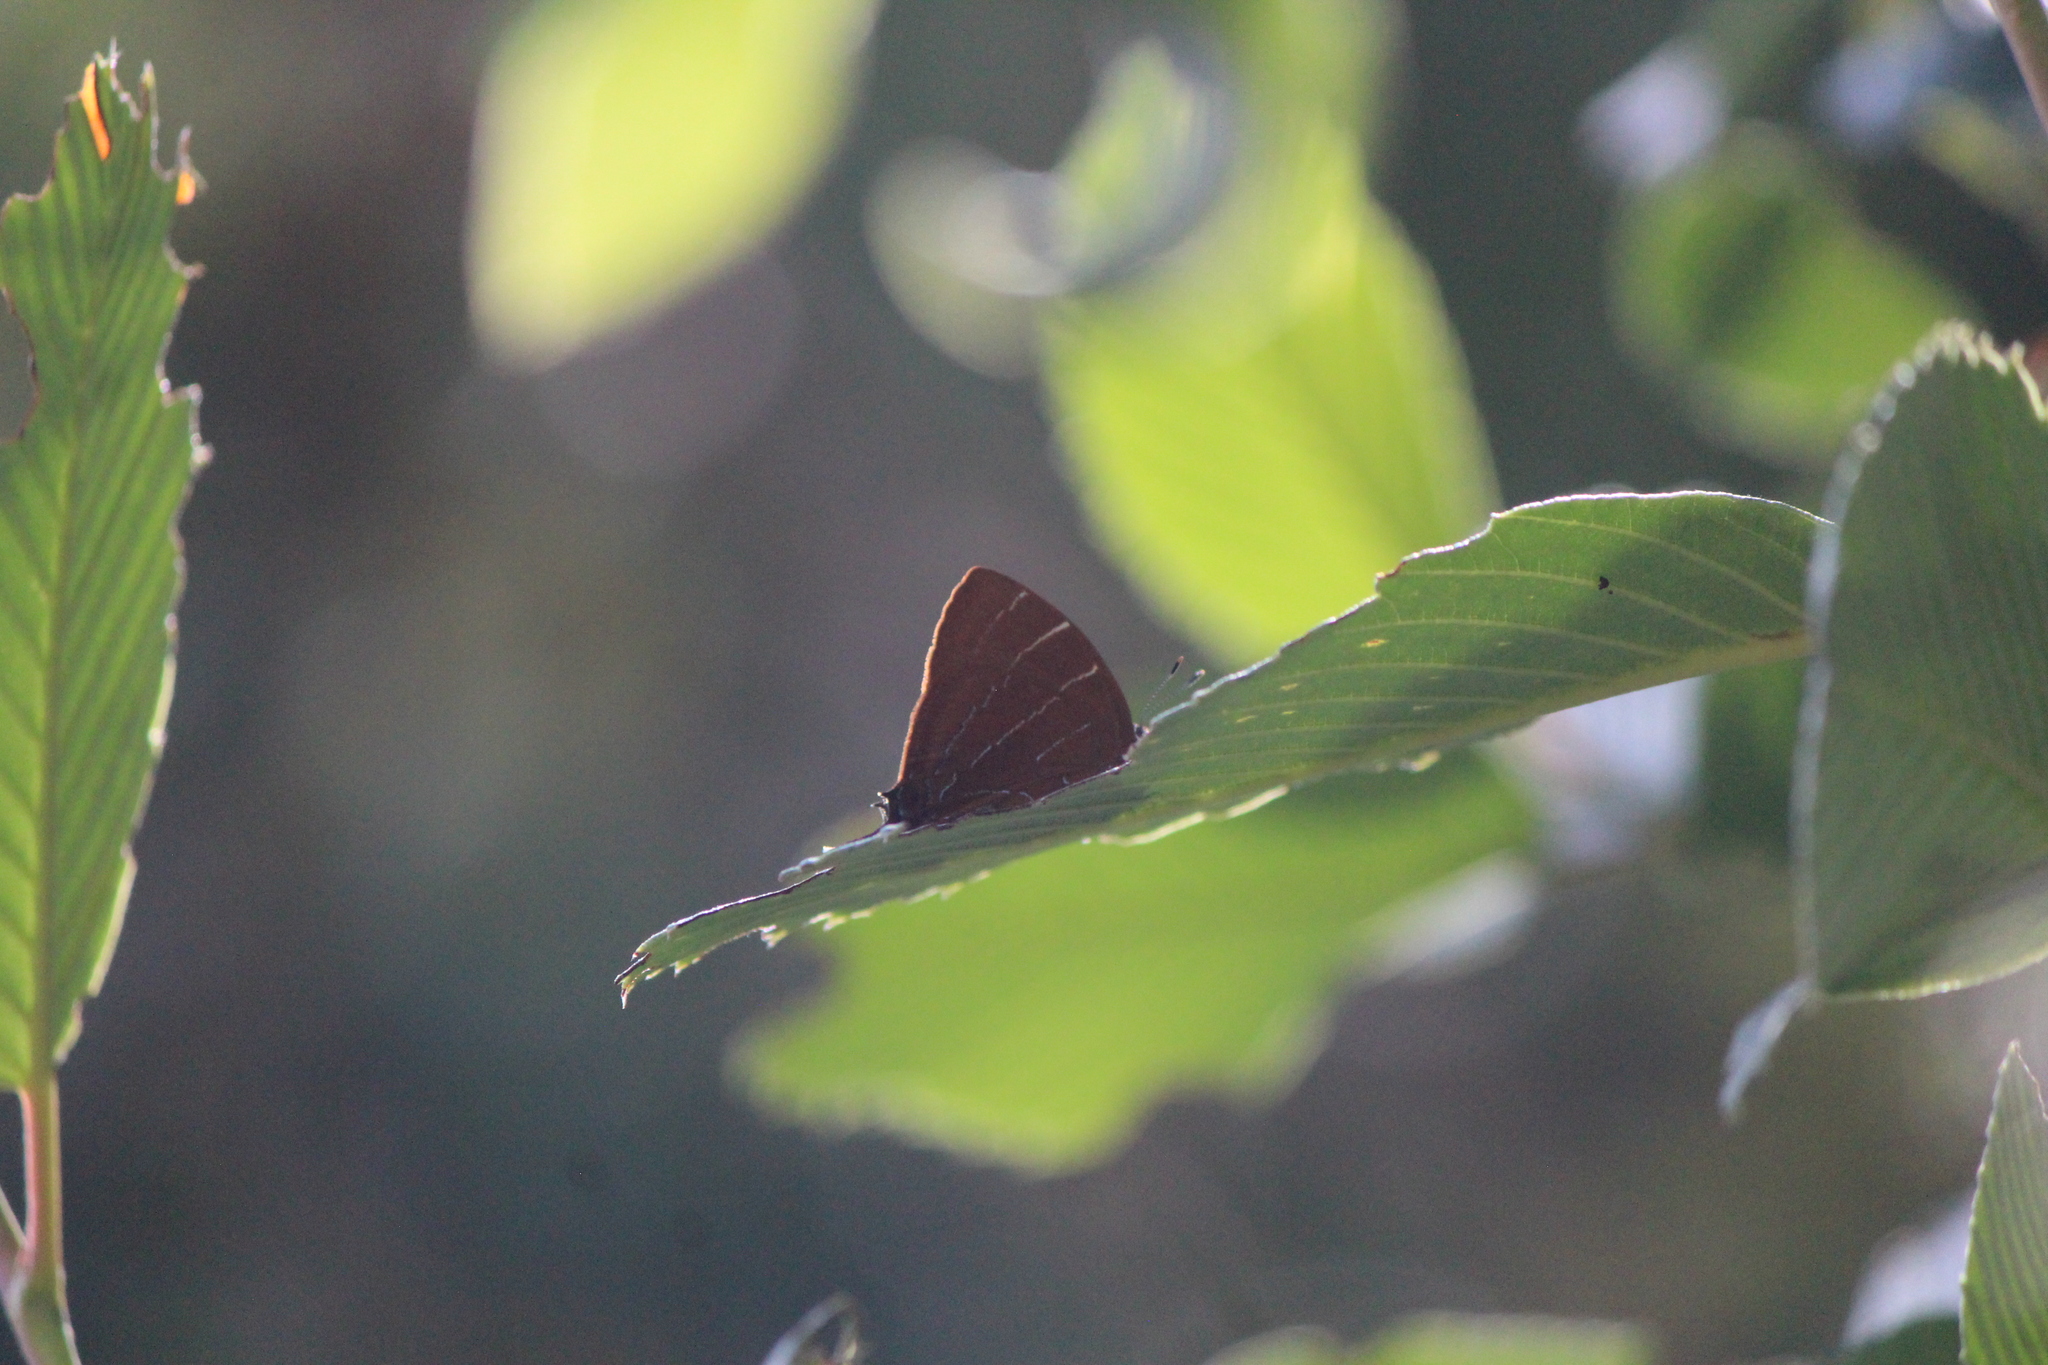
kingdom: Animalia
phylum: Arthropoda
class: Insecta
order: Lepidoptera
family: Lycaenidae
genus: Micandra
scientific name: Micandra
